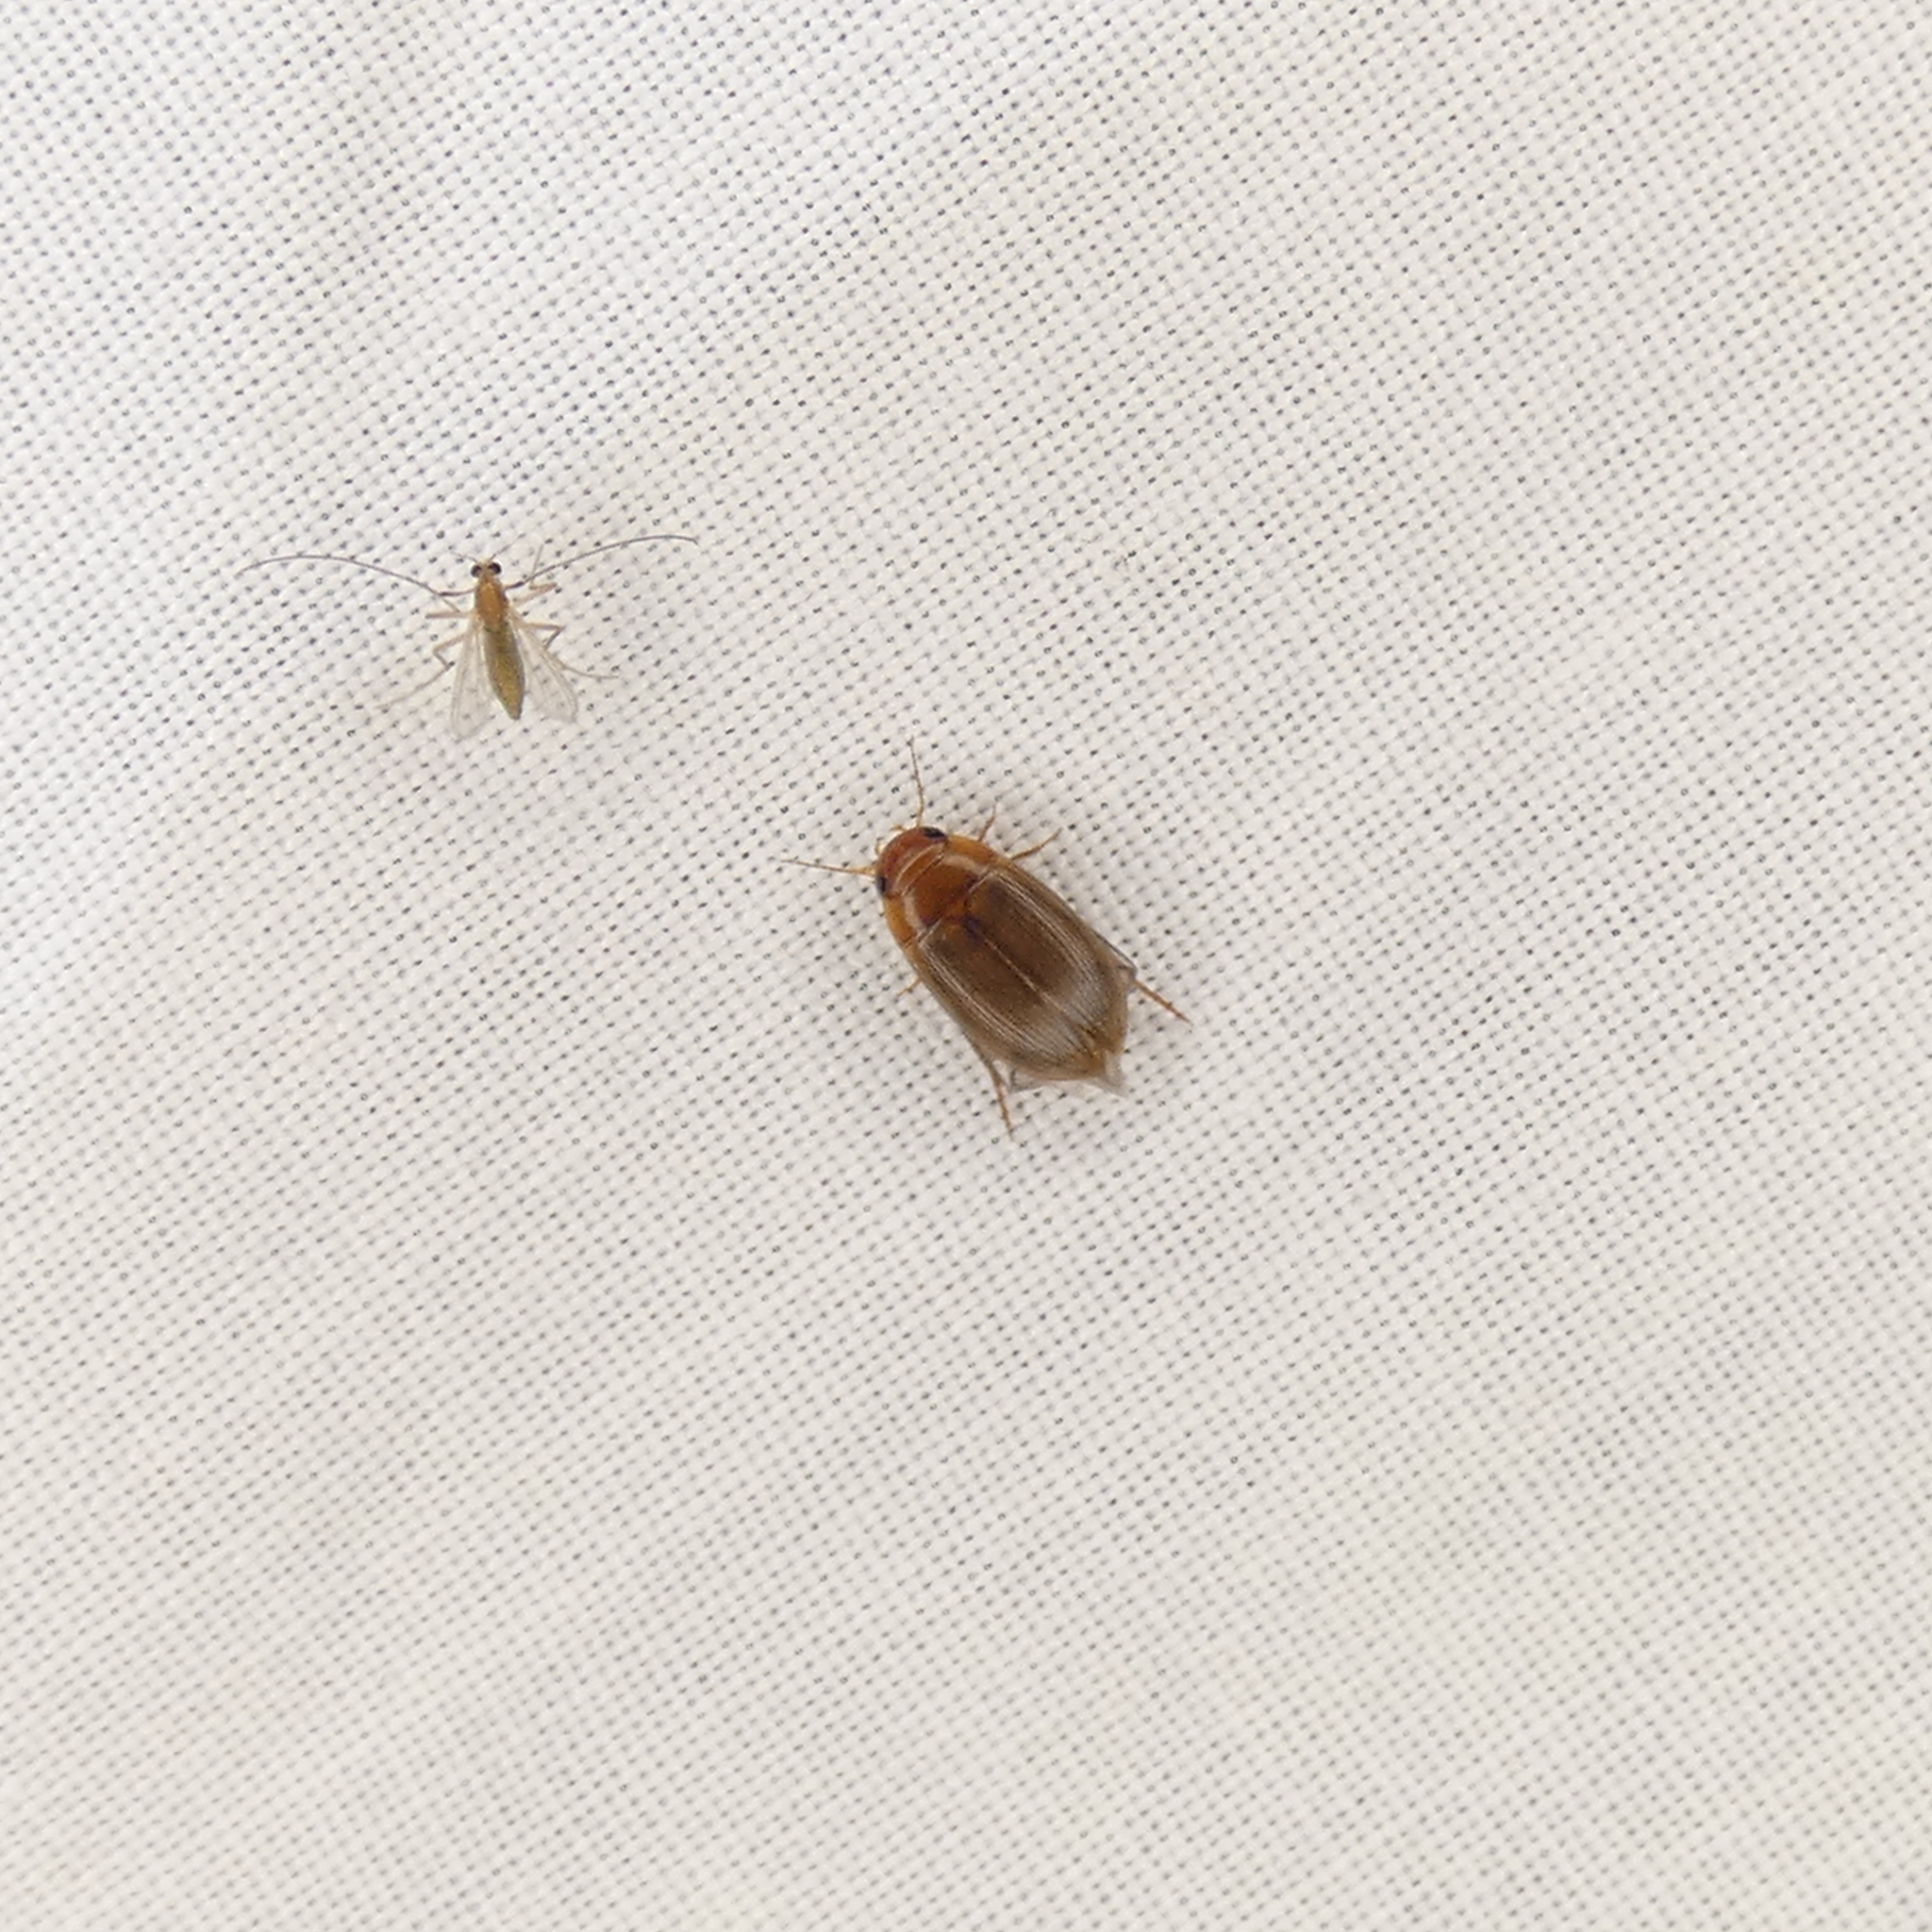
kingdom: Animalia
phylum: Arthropoda
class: Insecta
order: Coleoptera
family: Dytiscidae
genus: Copelatus
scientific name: Copelatus
